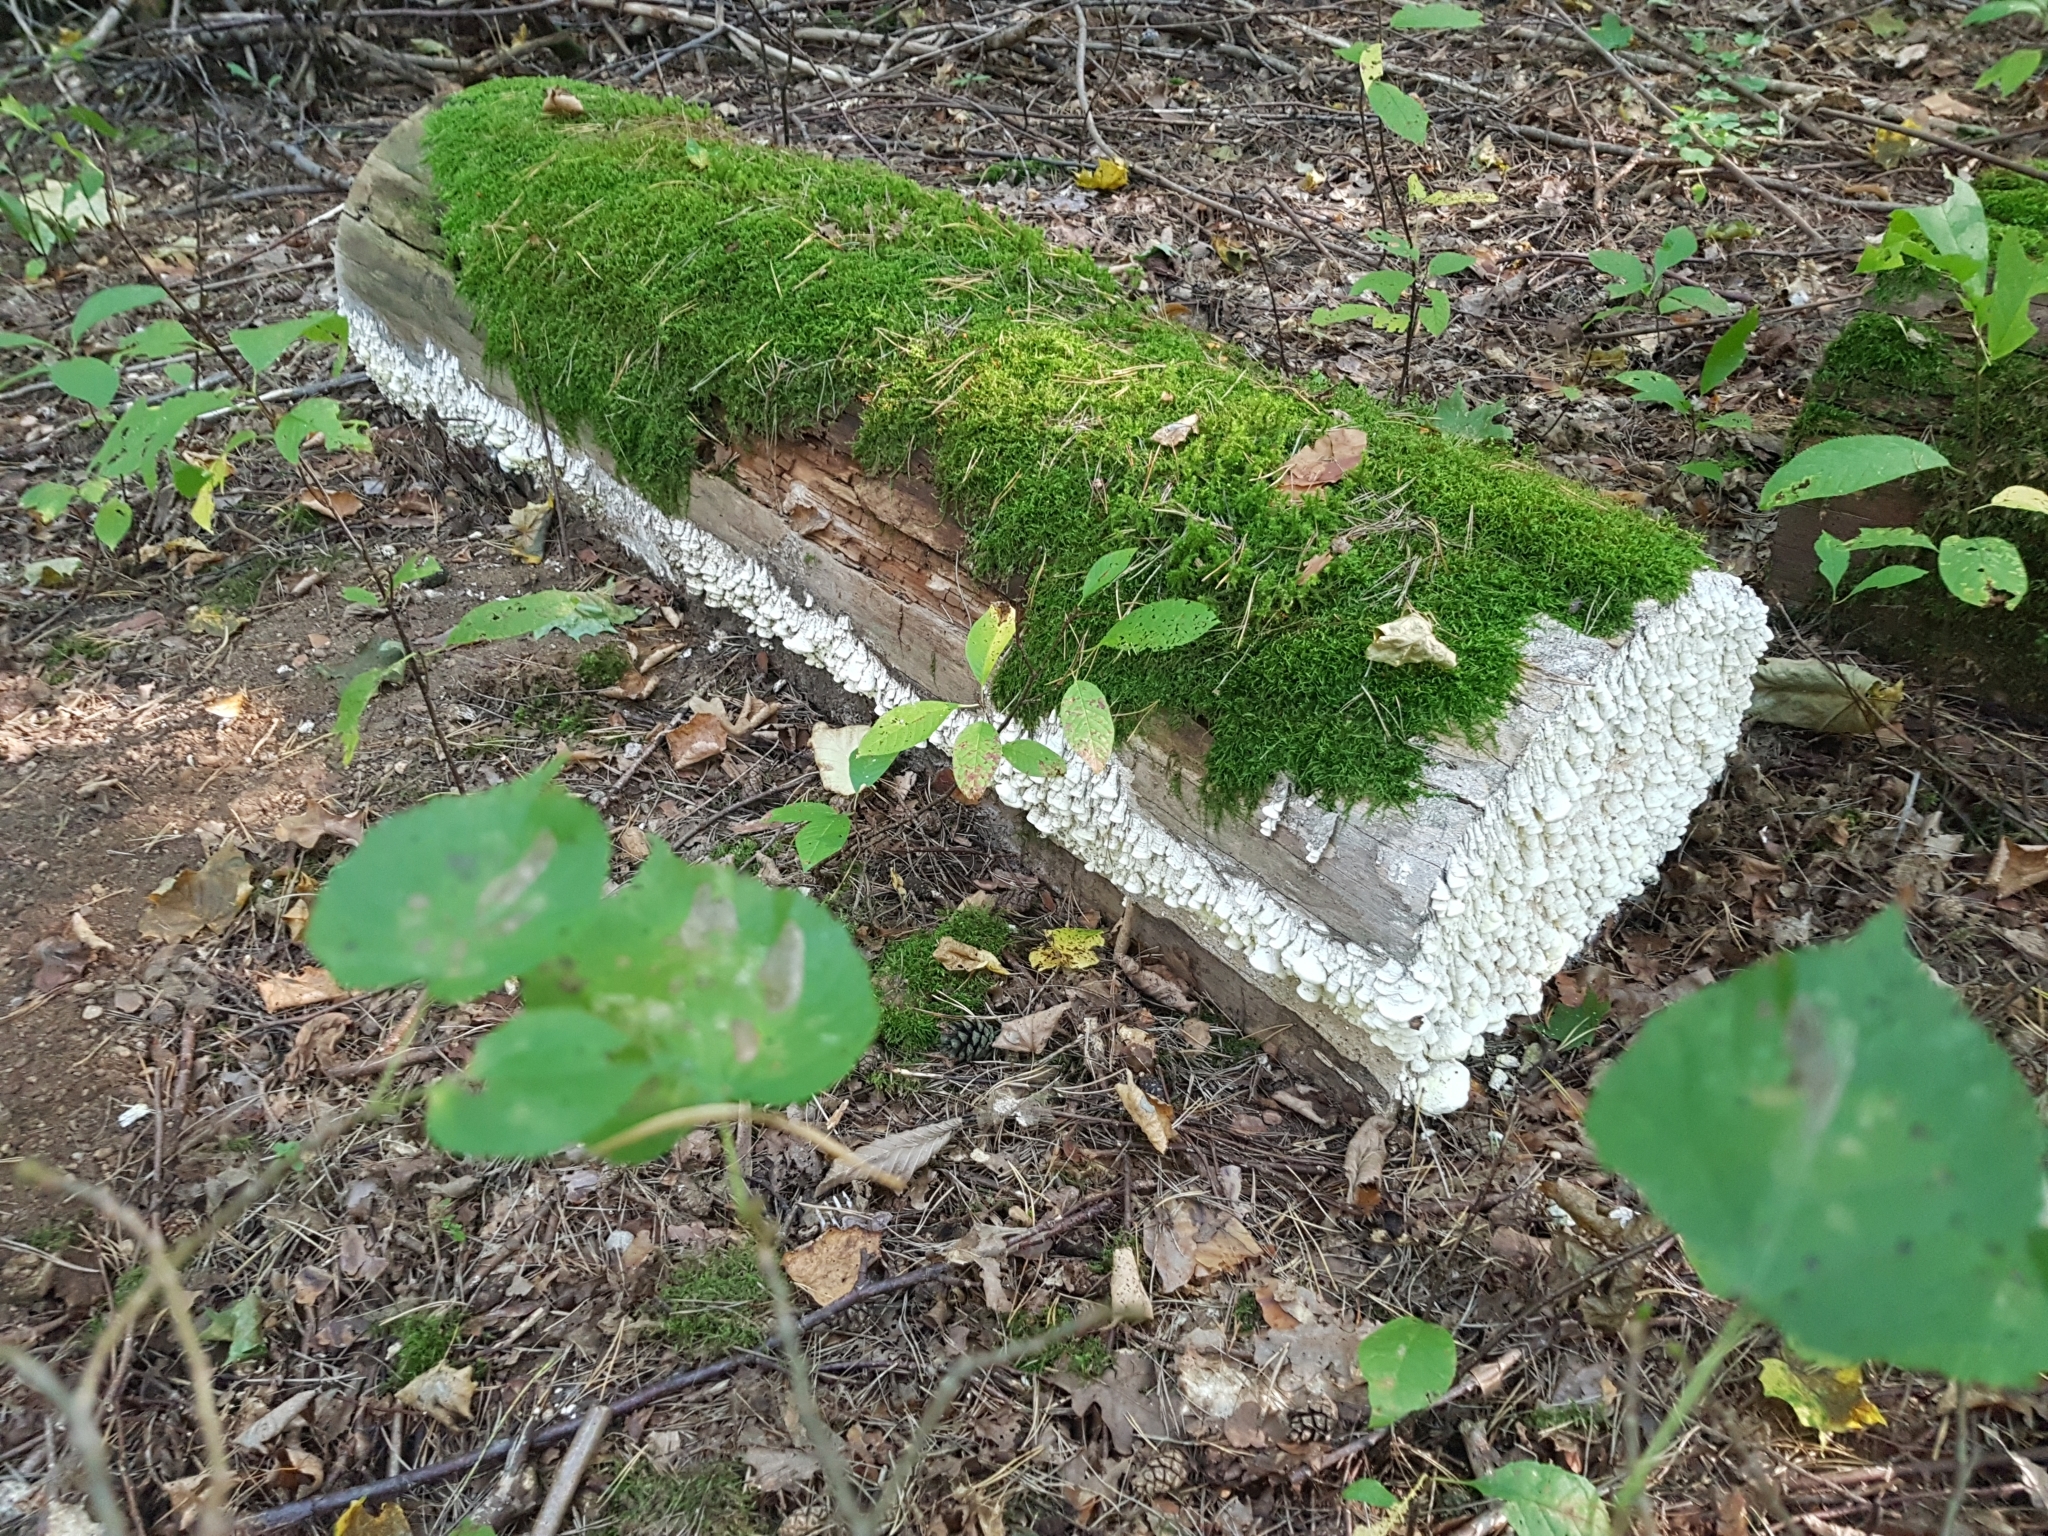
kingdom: Fungi
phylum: Basidiomycota
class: Agaricomycetes
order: Polyporales
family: Fomitopsidaceae
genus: Daedalea
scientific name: Daedalea xantha
